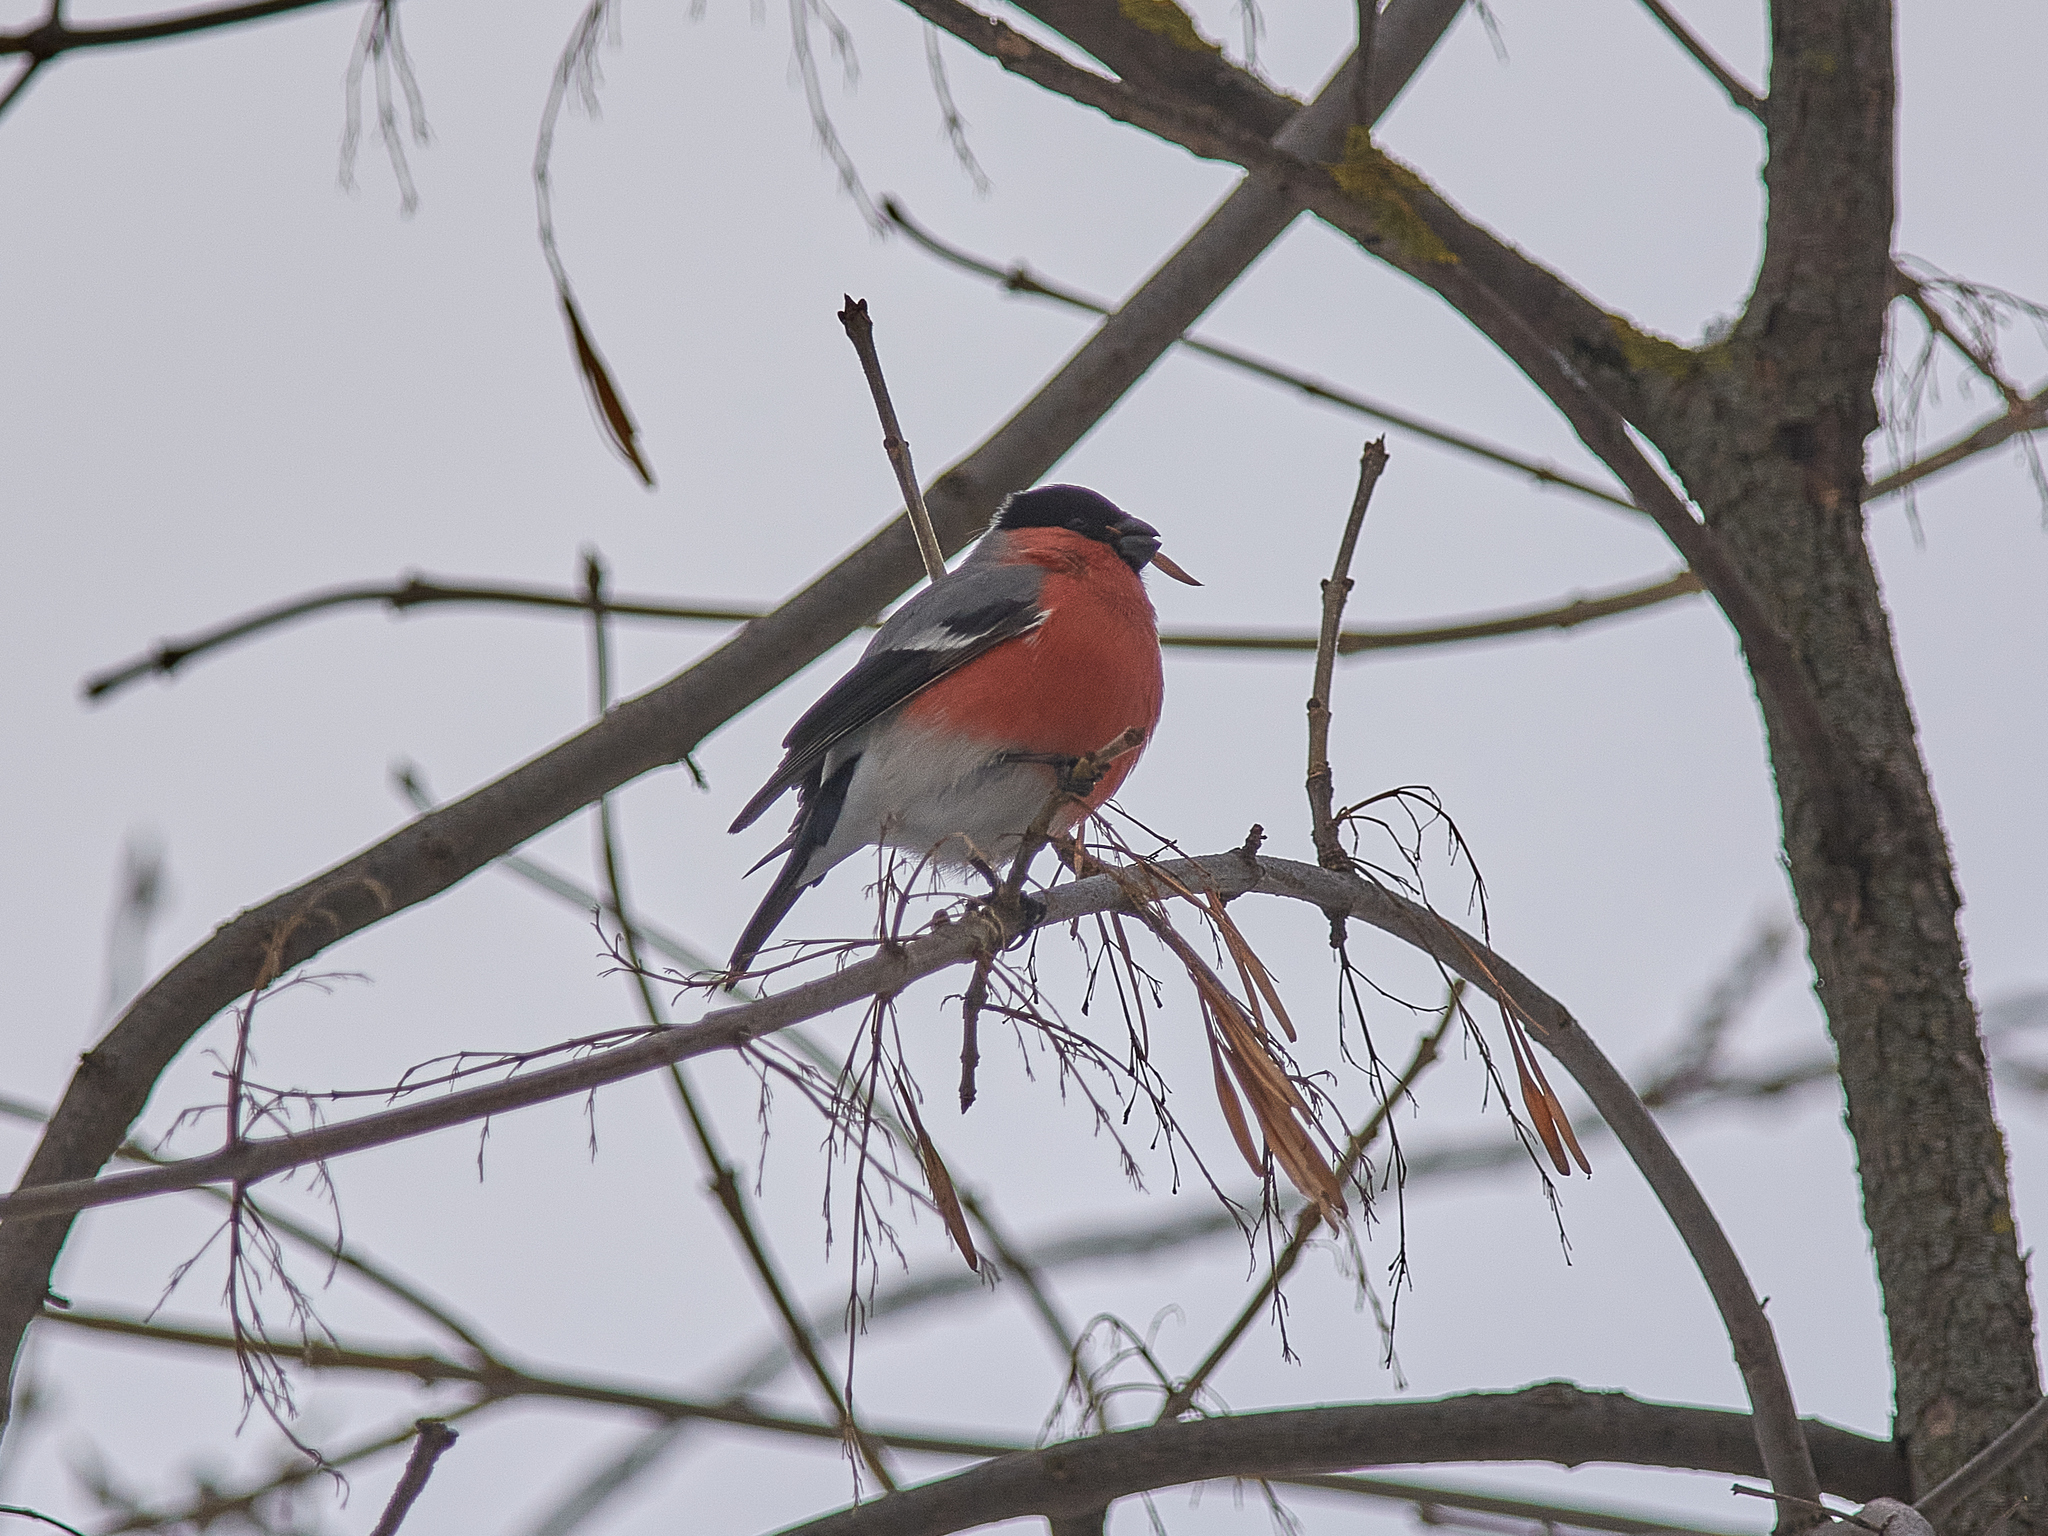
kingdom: Animalia
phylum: Chordata
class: Aves
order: Passeriformes
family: Fringillidae
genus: Pyrrhula
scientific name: Pyrrhula pyrrhula
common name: Eurasian bullfinch
